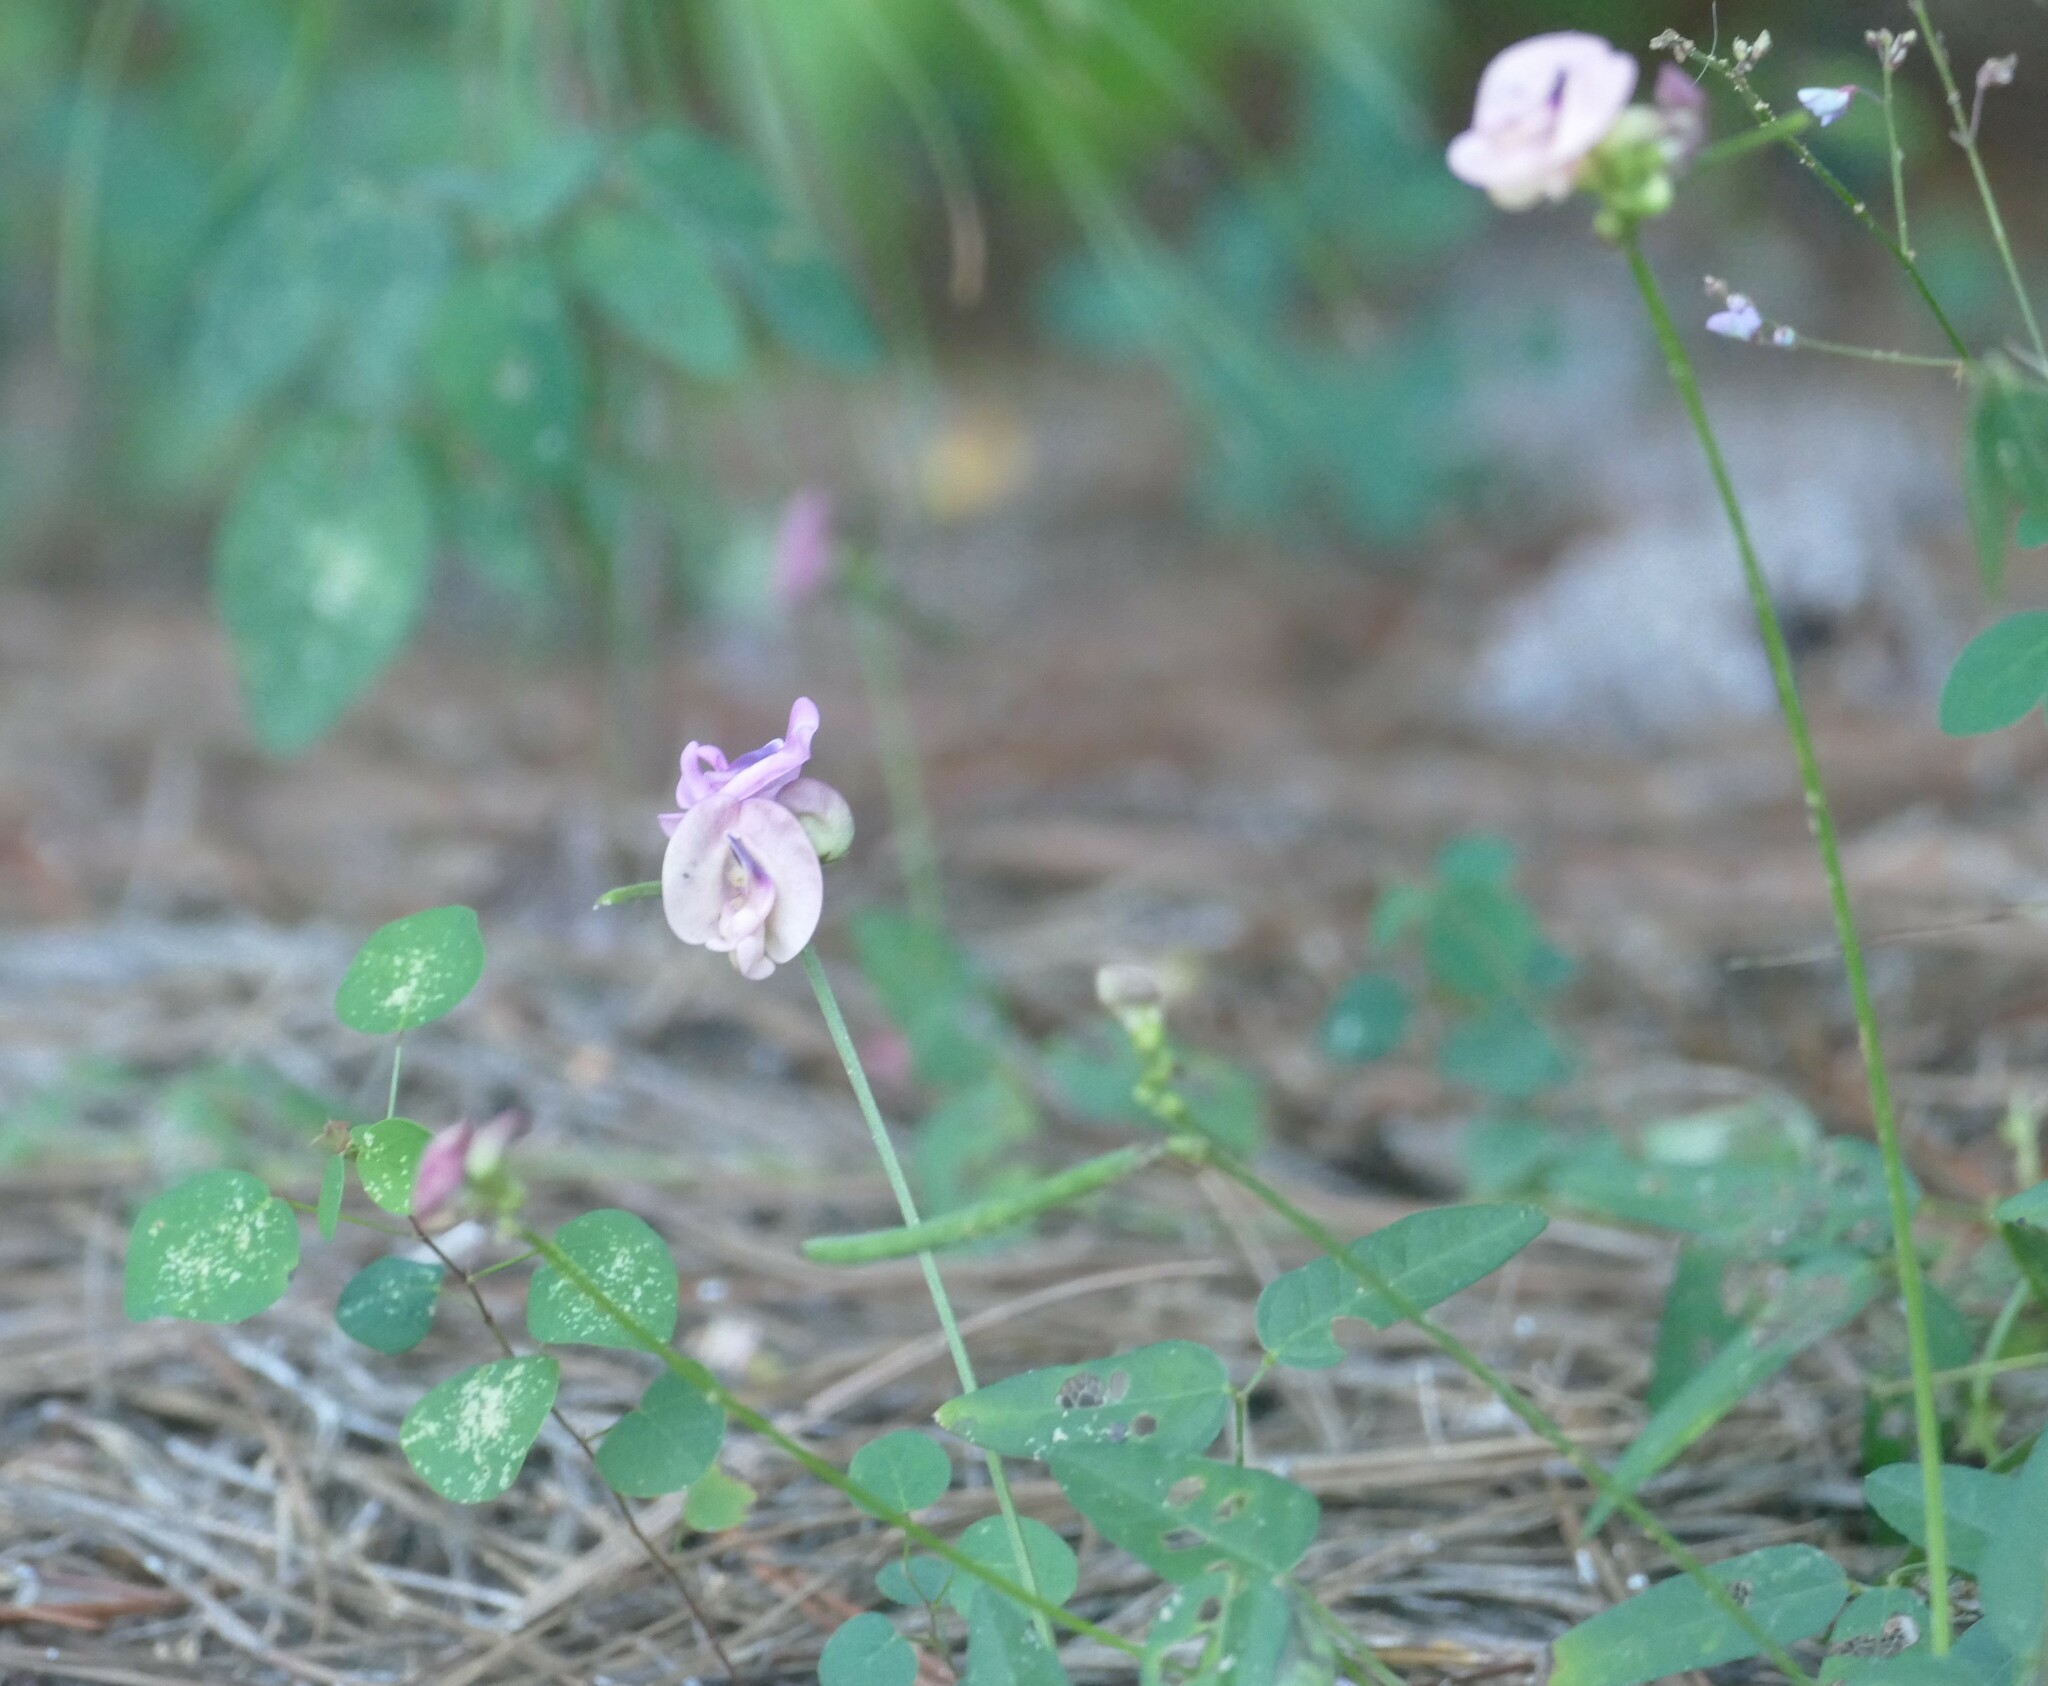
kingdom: Plantae
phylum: Tracheophyta
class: Magnoliopsida
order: Fabales
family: Fabaceae
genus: Strophostyles
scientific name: Strophostyles umbellata
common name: Perennial wild bean
